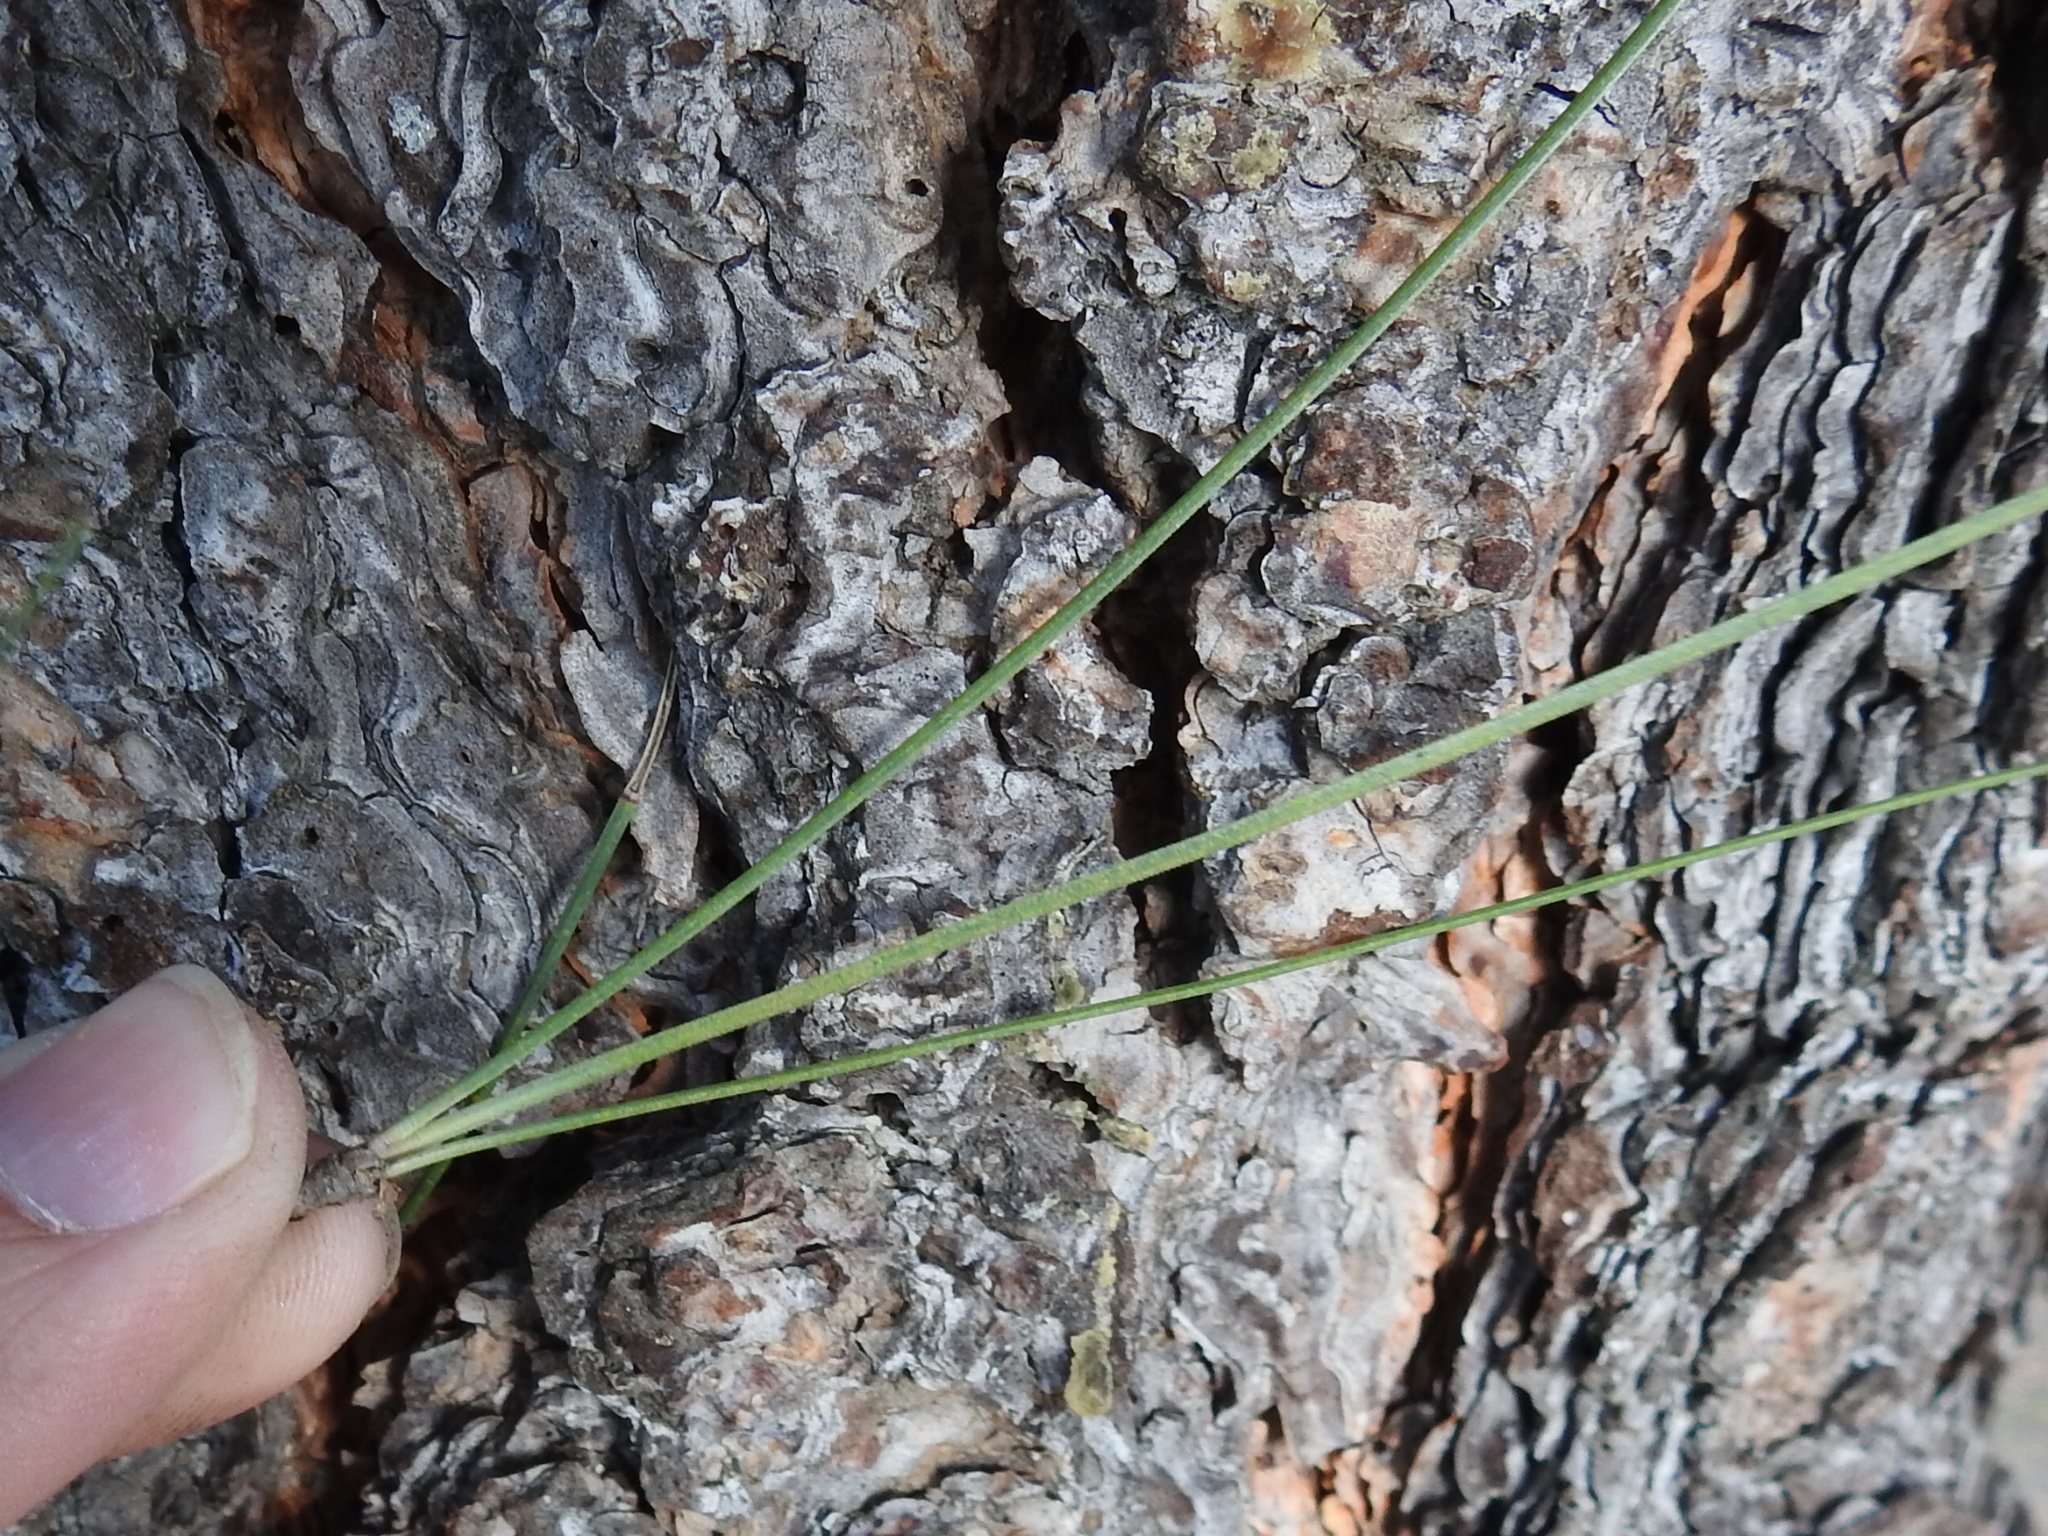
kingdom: Plantae
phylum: Tracheophyta
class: Pinopsida
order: Pinales
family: Pinaceae
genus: Pinus
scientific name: Pinus ponderosa
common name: Western yellow-pine
